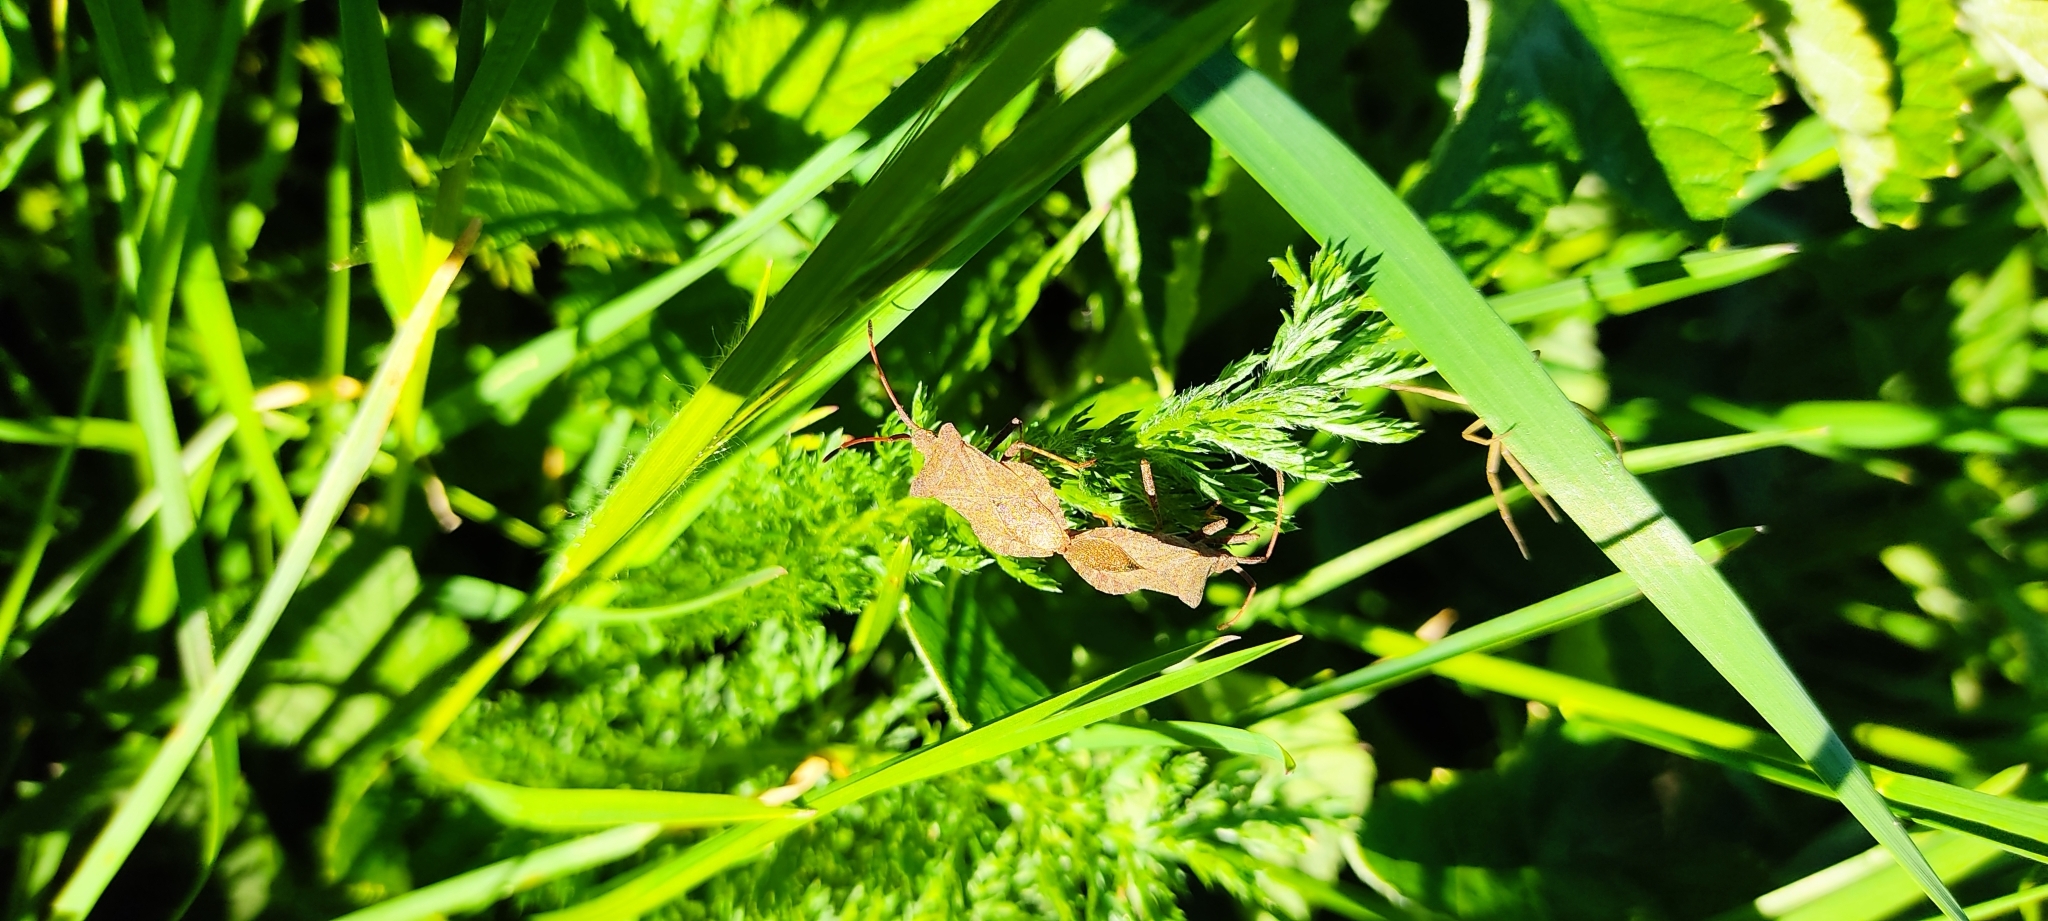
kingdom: Animalia
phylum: Arthropoda
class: Insecta
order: Hemiptera
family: Coreidae
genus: Coreus
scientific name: Coreus marginatus
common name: Dock bug
